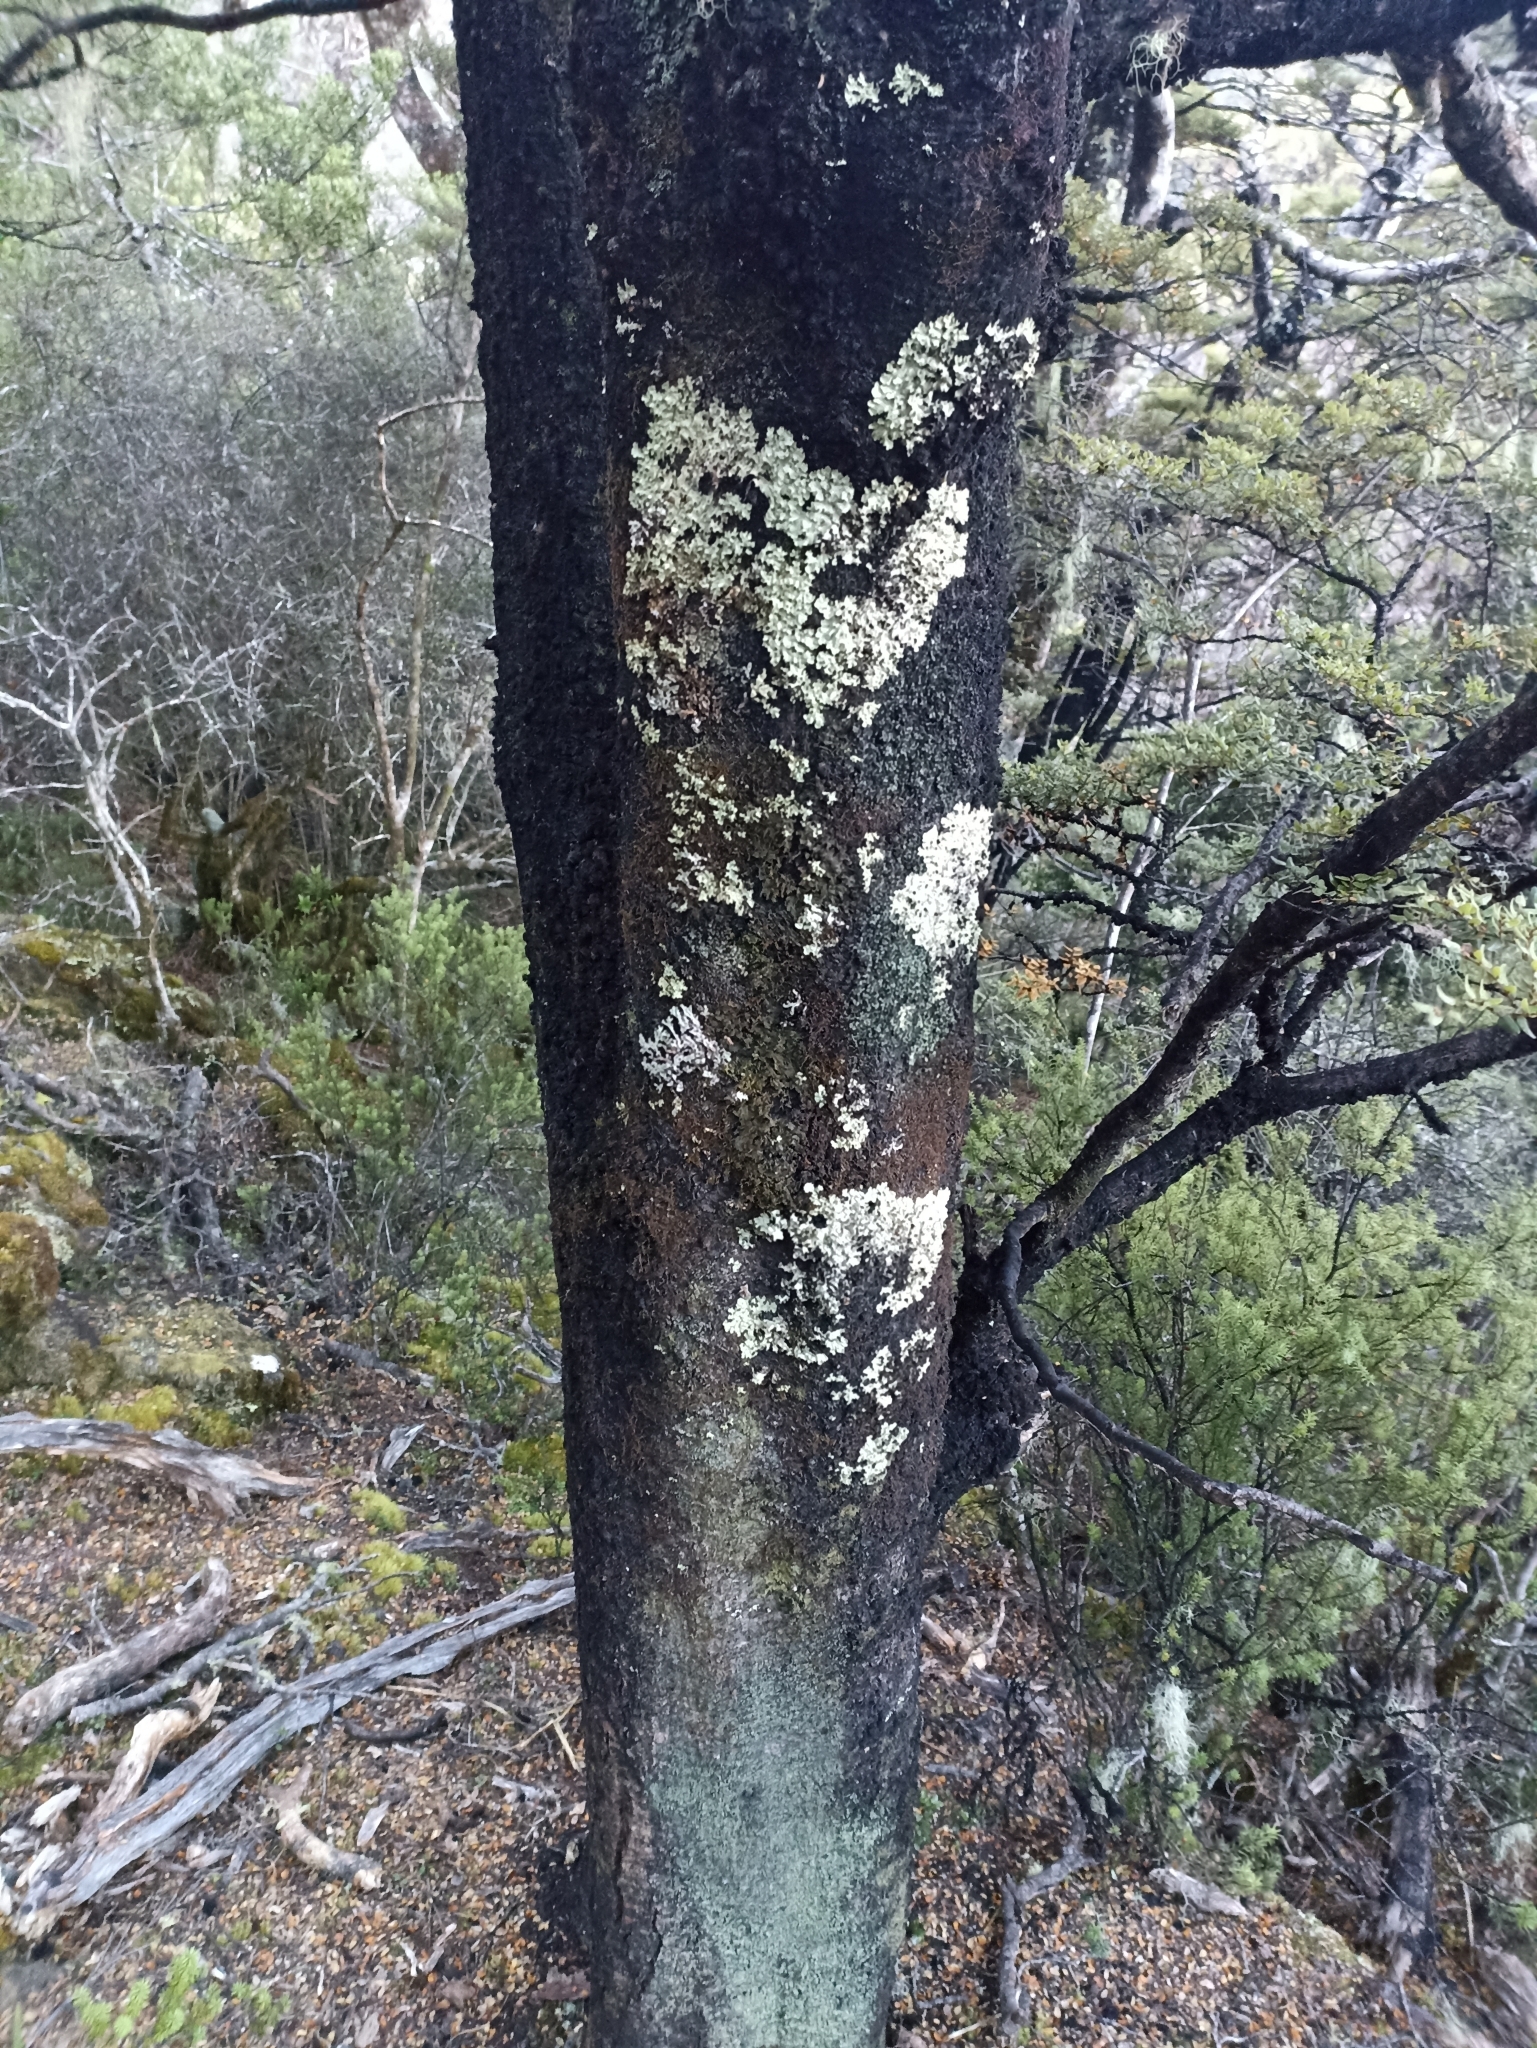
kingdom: Plantae
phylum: Tracheophyta
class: Magnoliopsida
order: Fagales
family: Nothofagaceae
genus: Nothofagus
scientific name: Nothofagus cliffortioides
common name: Mountain beech
